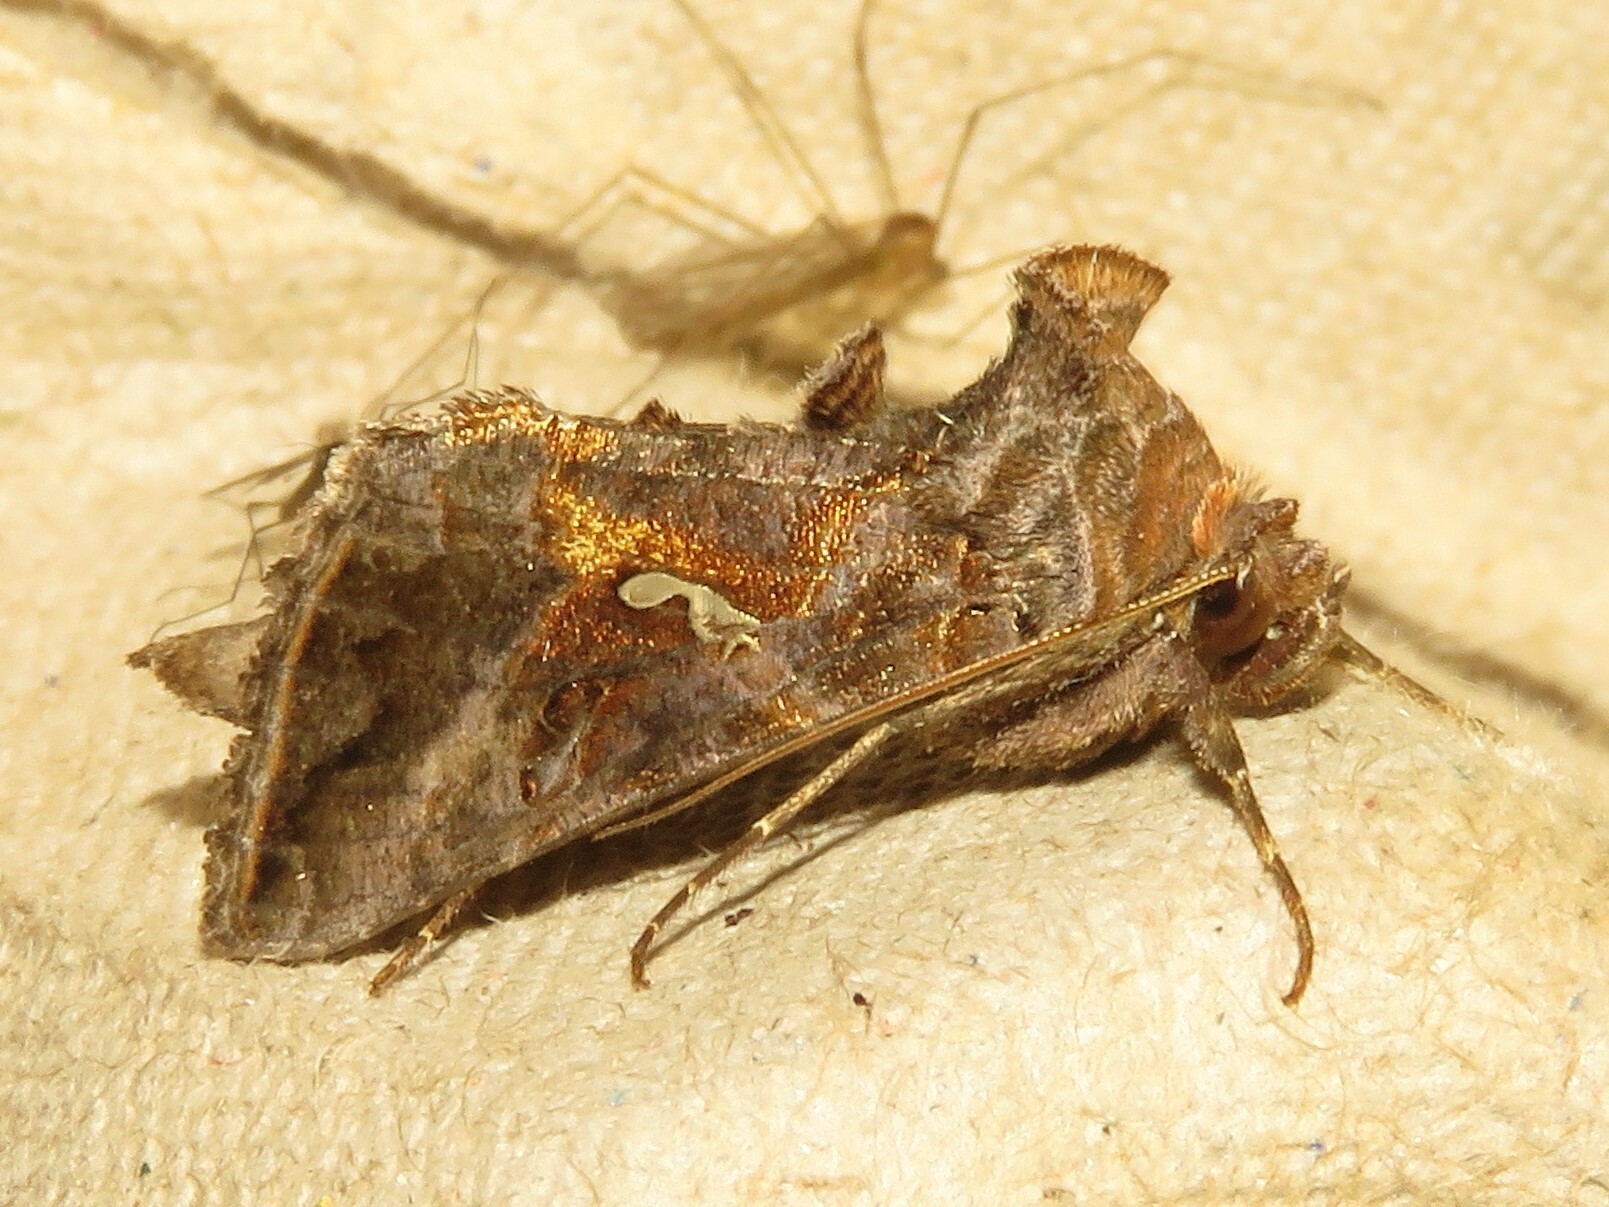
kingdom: Animalia
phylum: Arthropoda
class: Insecta
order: Lepidoptera
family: Noctuidae
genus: Autographa
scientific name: Autographa precationis
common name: Common looper moth
